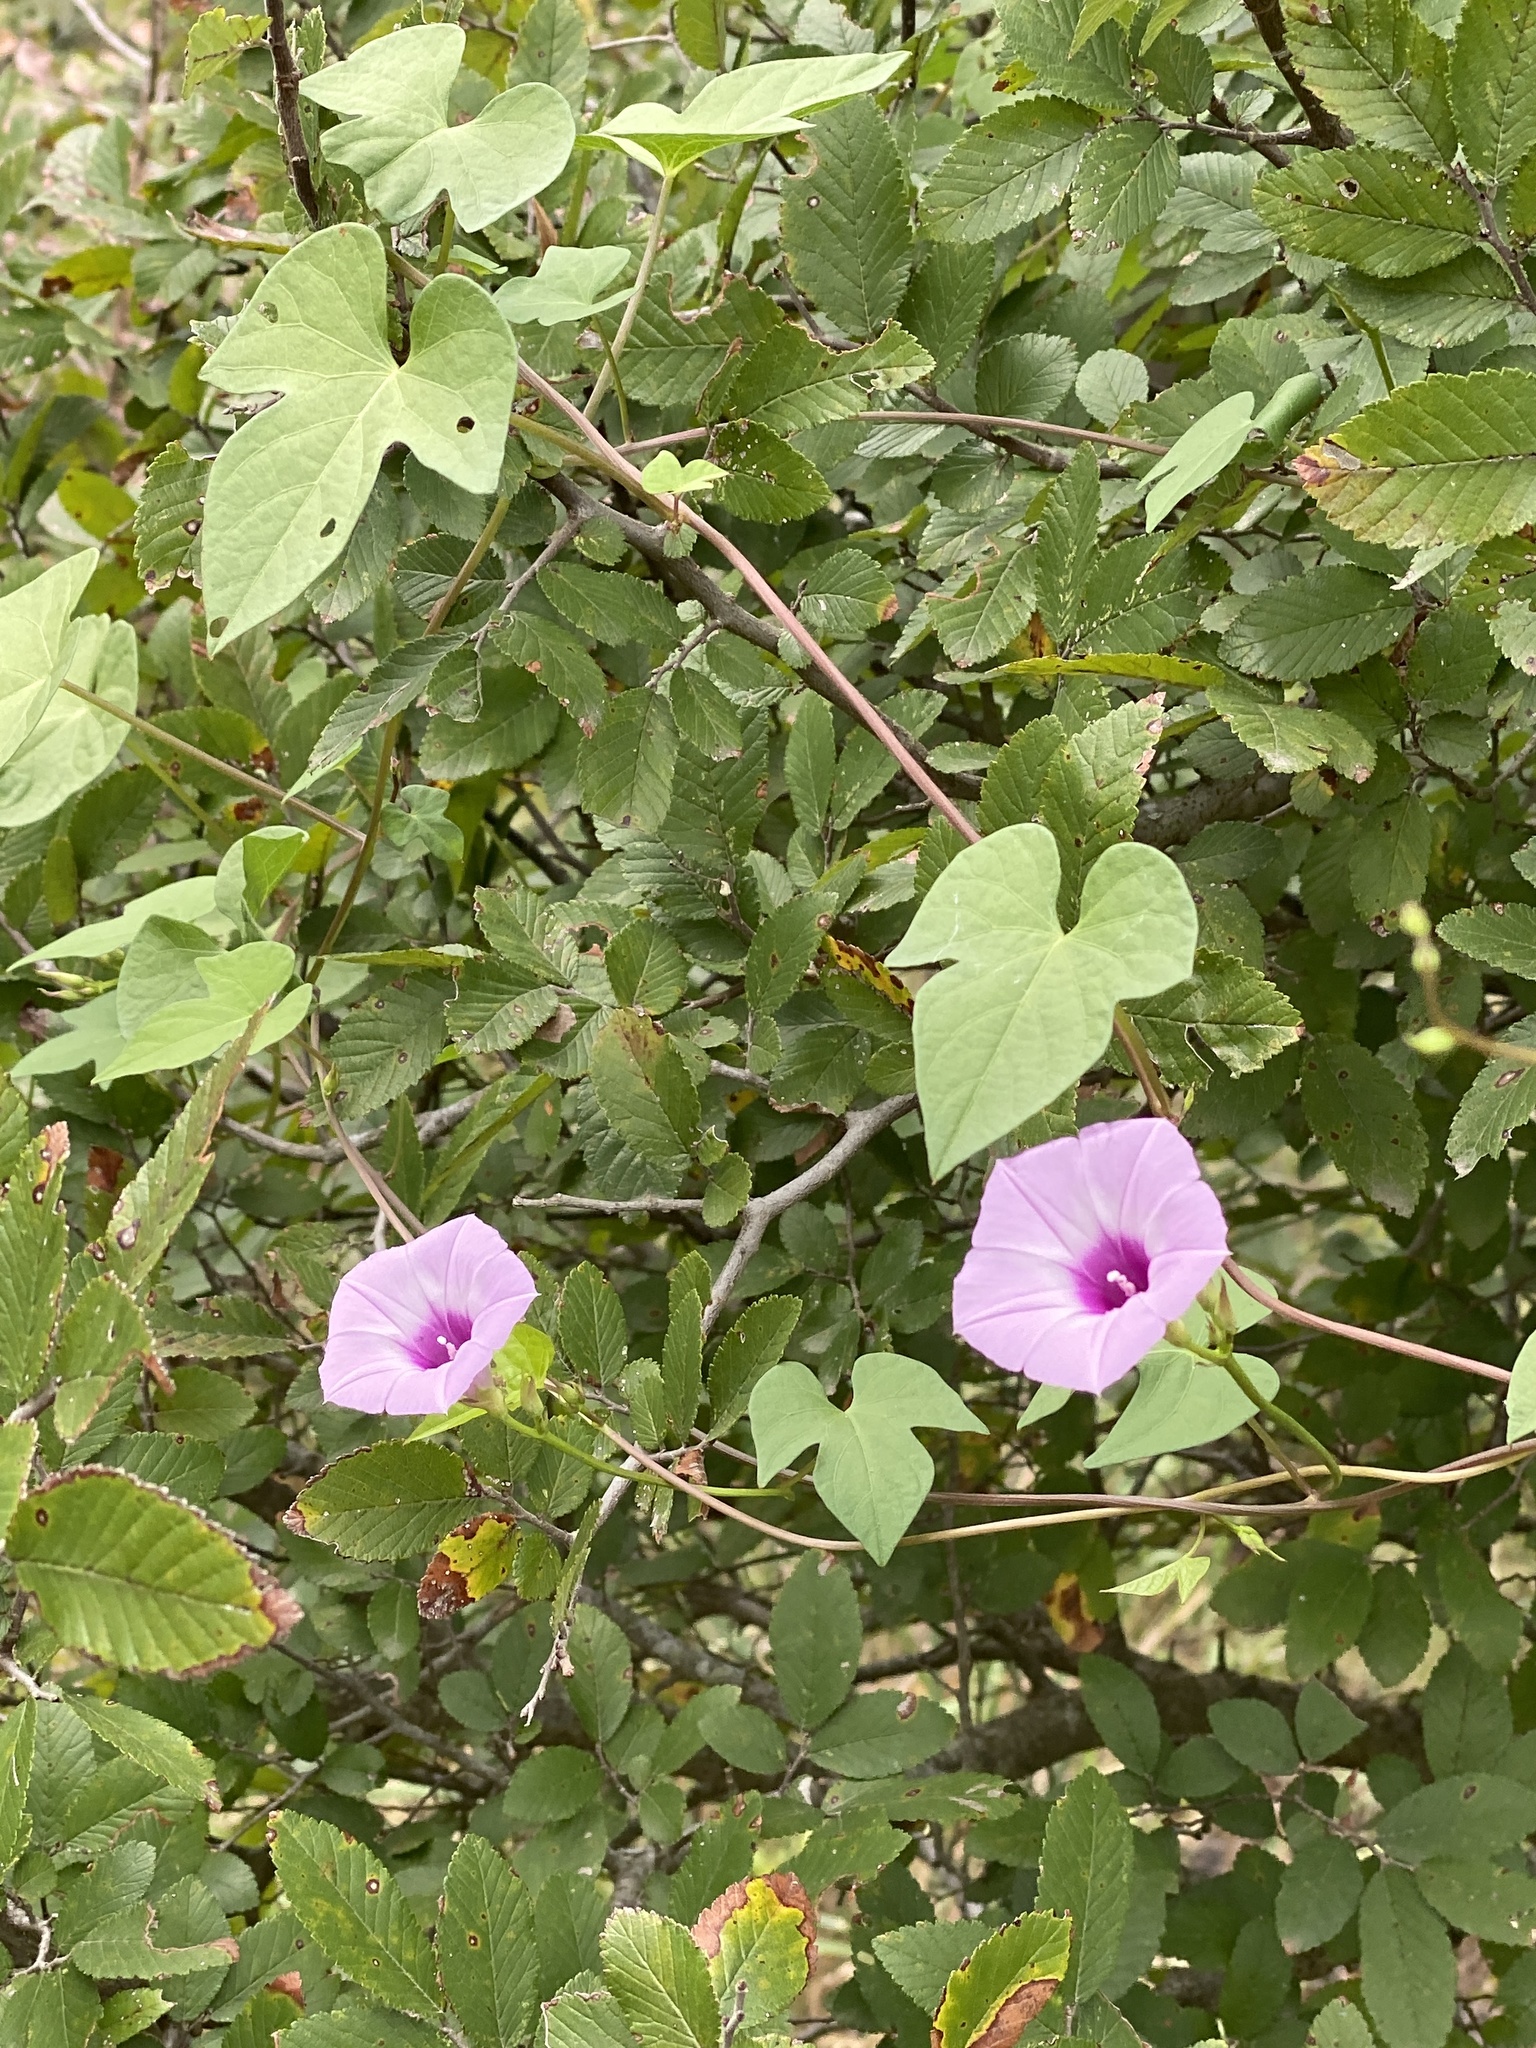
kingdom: Plantae
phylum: Tracheophyta
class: Magnoliopsida
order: Solanales
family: Convolvulaceae
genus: Ipomoea
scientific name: Ipomoea cordatotriloba
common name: Cotton morning glory
